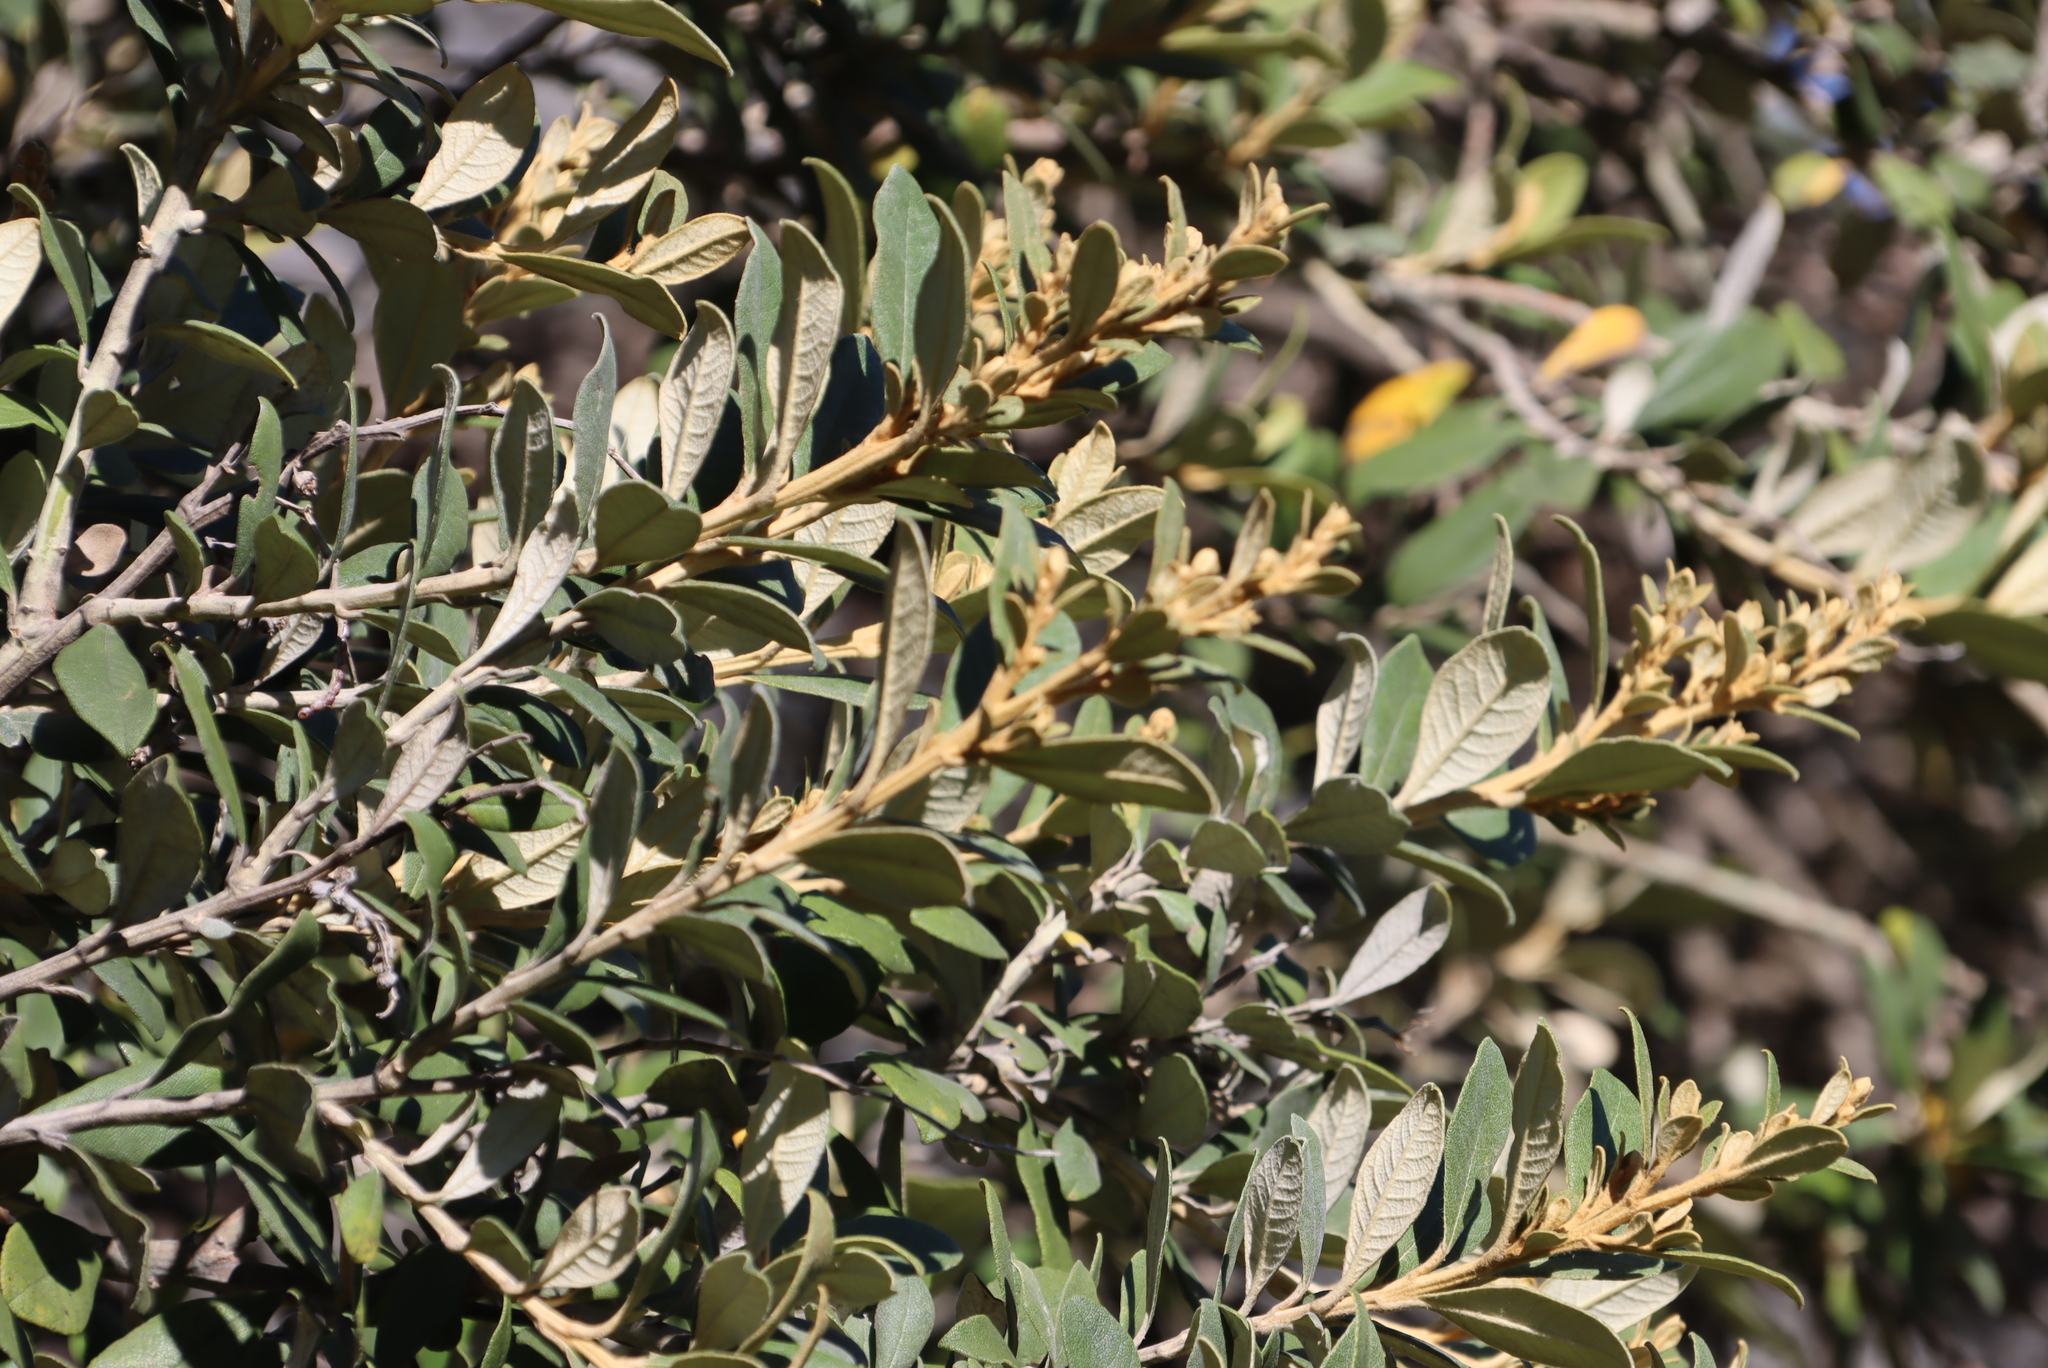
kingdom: Plantae
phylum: Tracheophyta
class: Magnoliopsida
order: Asterales
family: Asteraceae
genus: Tarchonanthus
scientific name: Tarchonanthus littoralis
